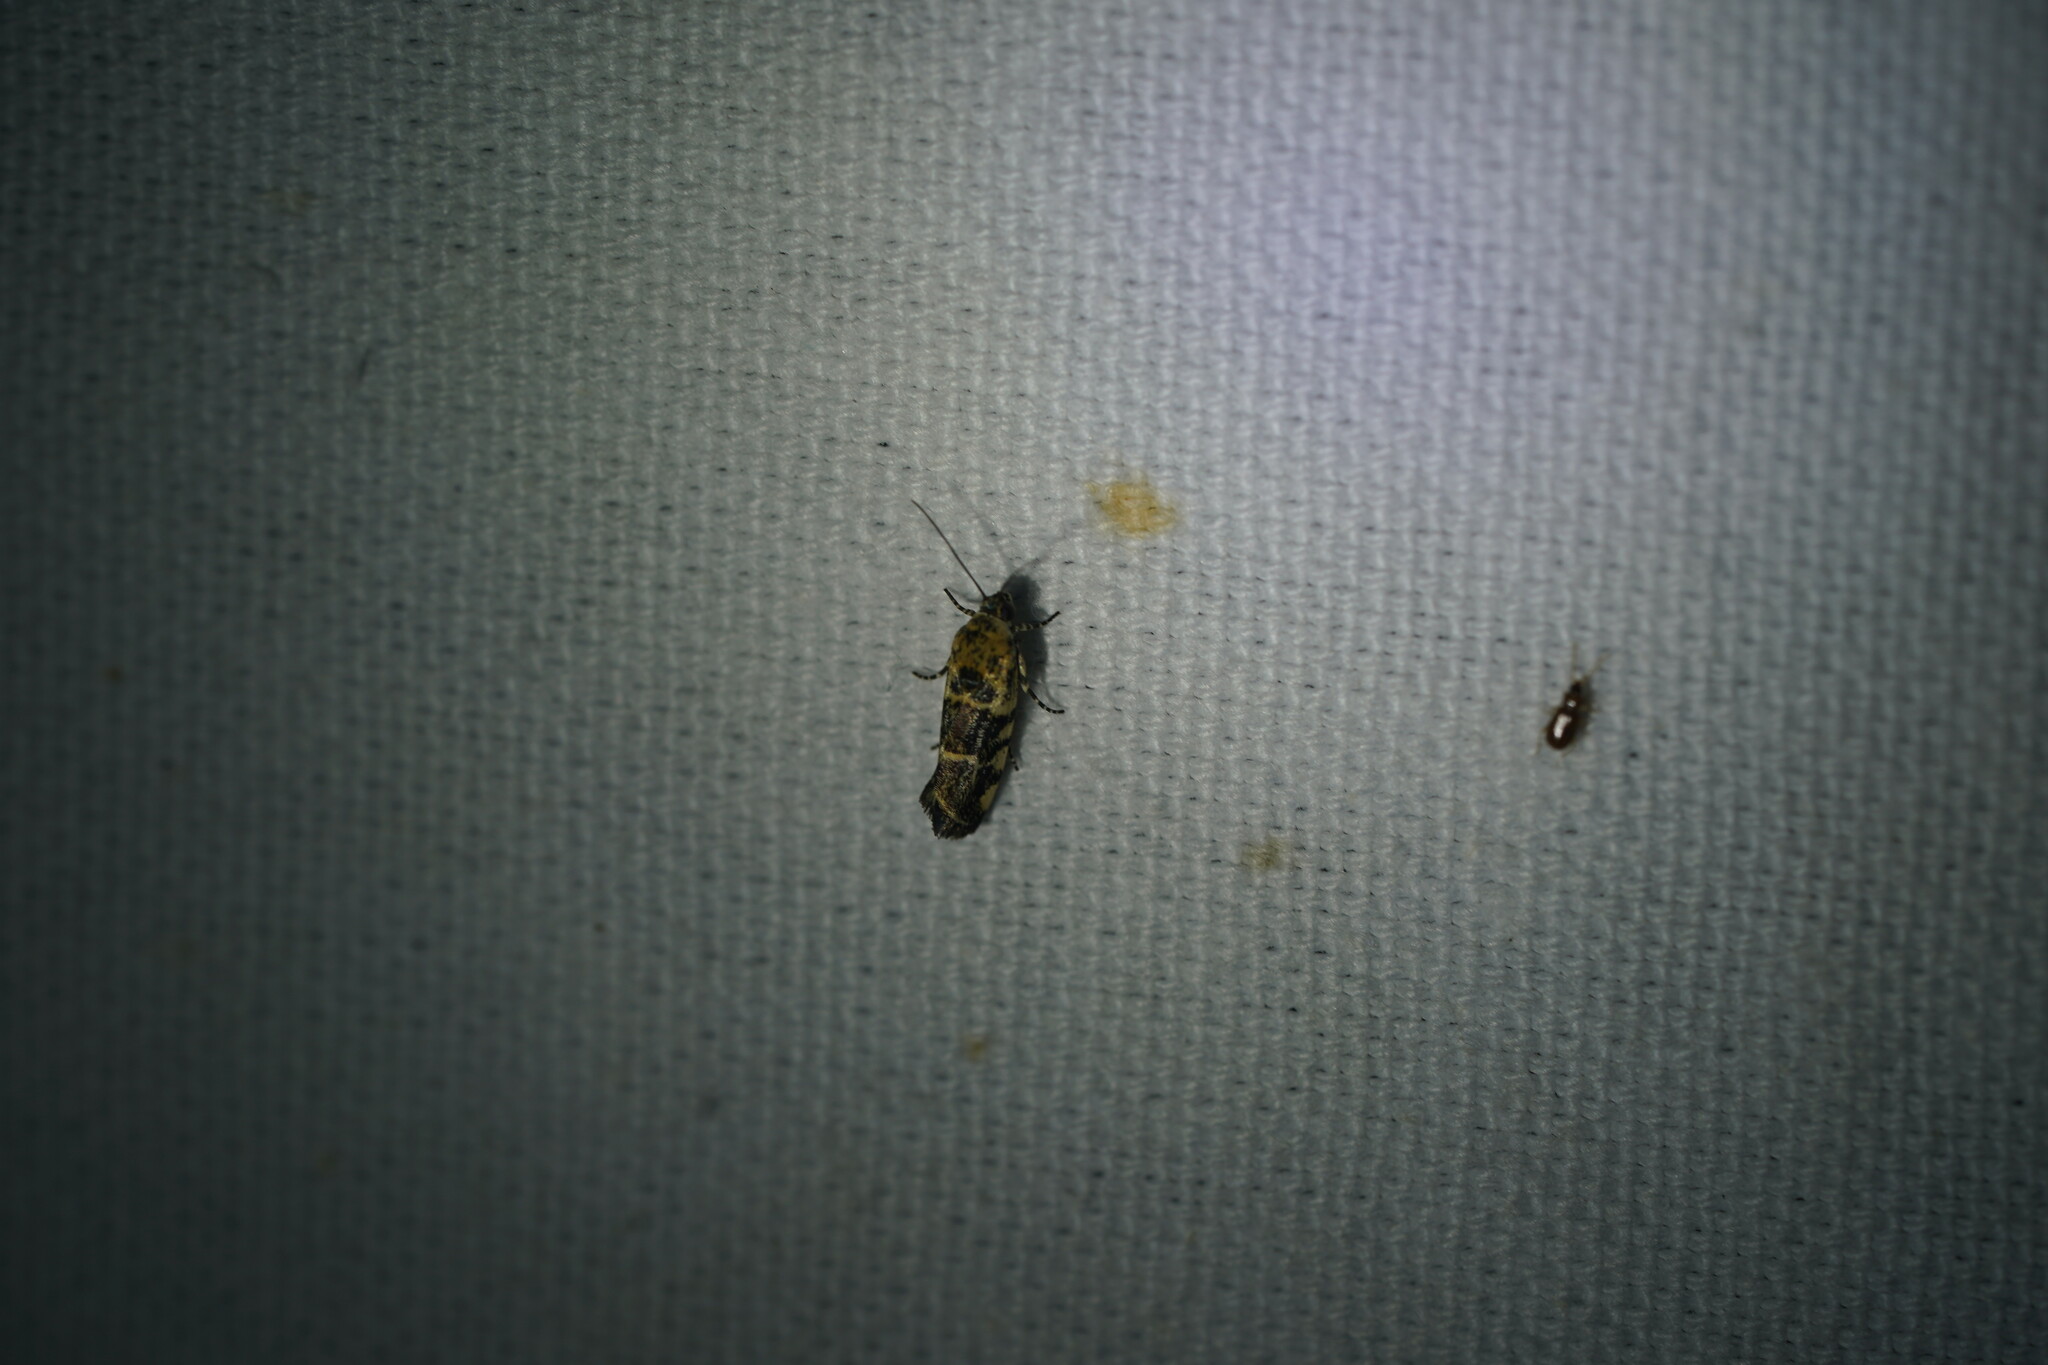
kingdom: Animalia
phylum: Arthropoda
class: Insecta
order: Lepidoptera
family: Noctuidae
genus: Acontia
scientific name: Acontia leo
